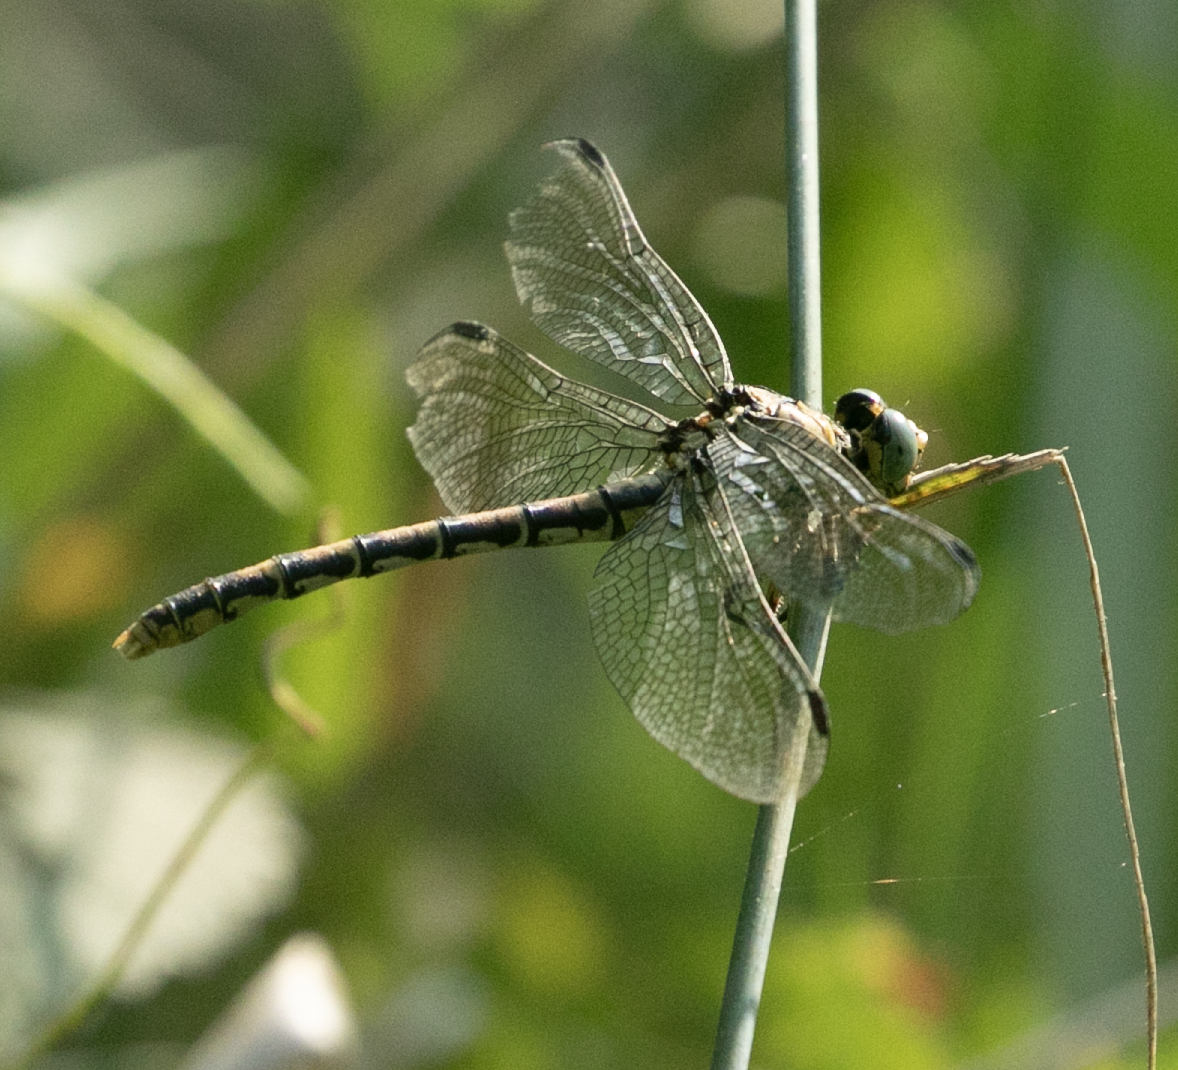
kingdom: Animalia
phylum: Arthropoda
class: Insecta
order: Odonata
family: Gomphidae
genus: Onychogomphus
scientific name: Onychogomphus forcipatus
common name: Small pincertail
